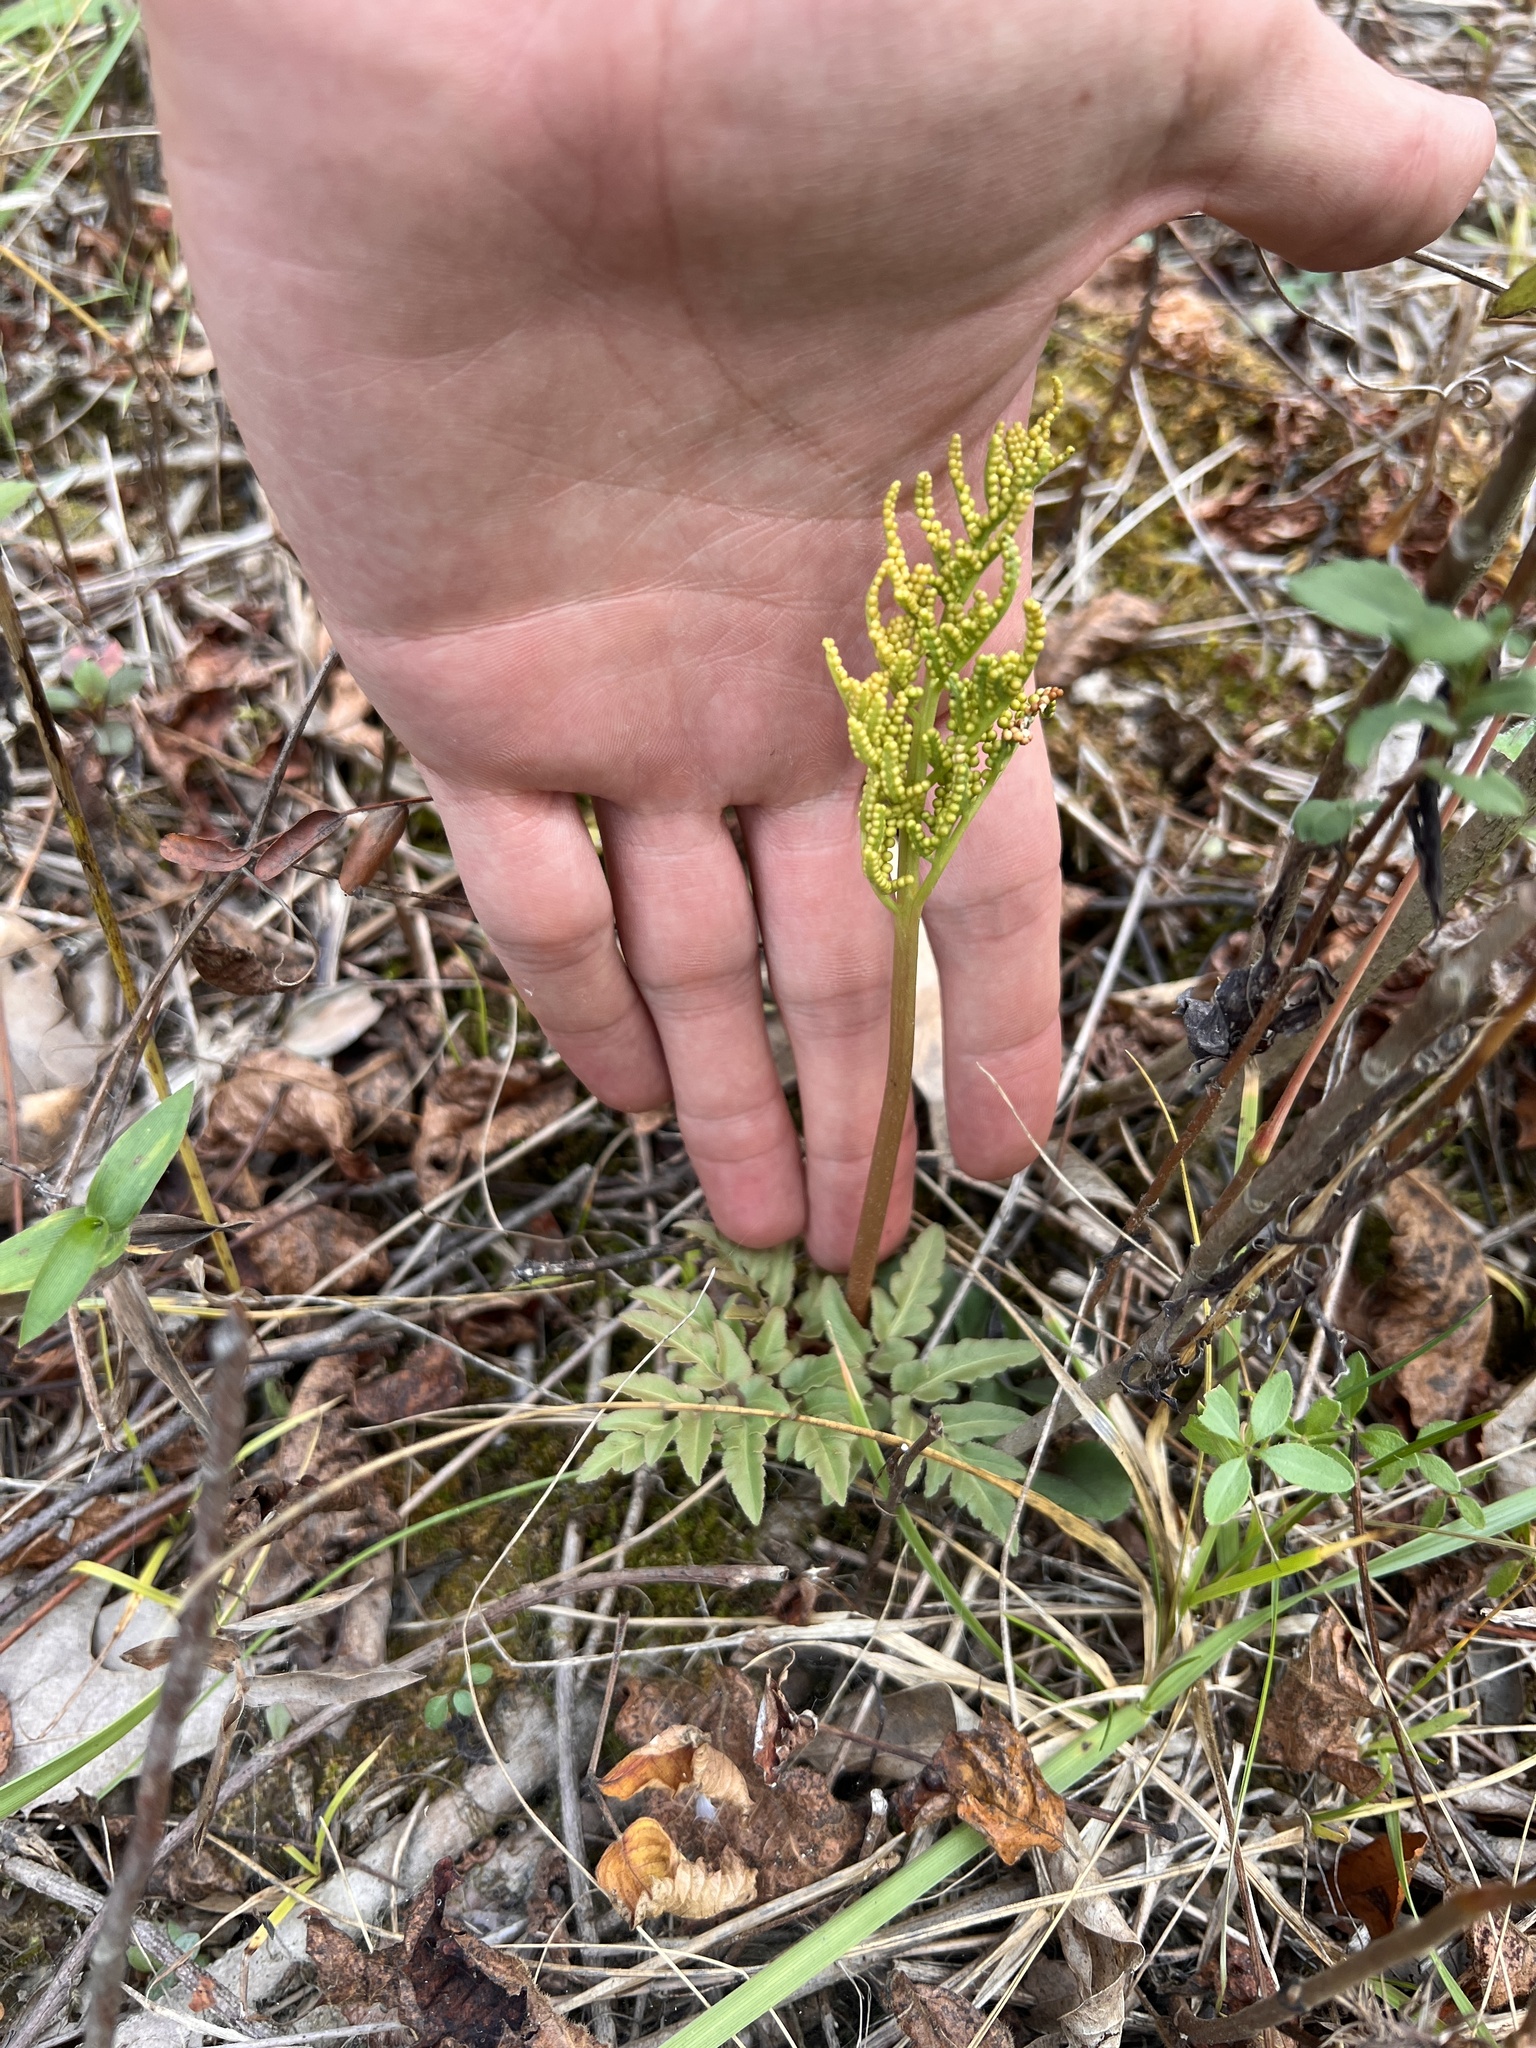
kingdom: Plantae
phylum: Tracheophyta
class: Polypodiopsida
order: Ophioglossales
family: Ophioglossaceae
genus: Sceptridium
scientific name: Sceptridium dissectum
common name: Cut-leaved grapefern
